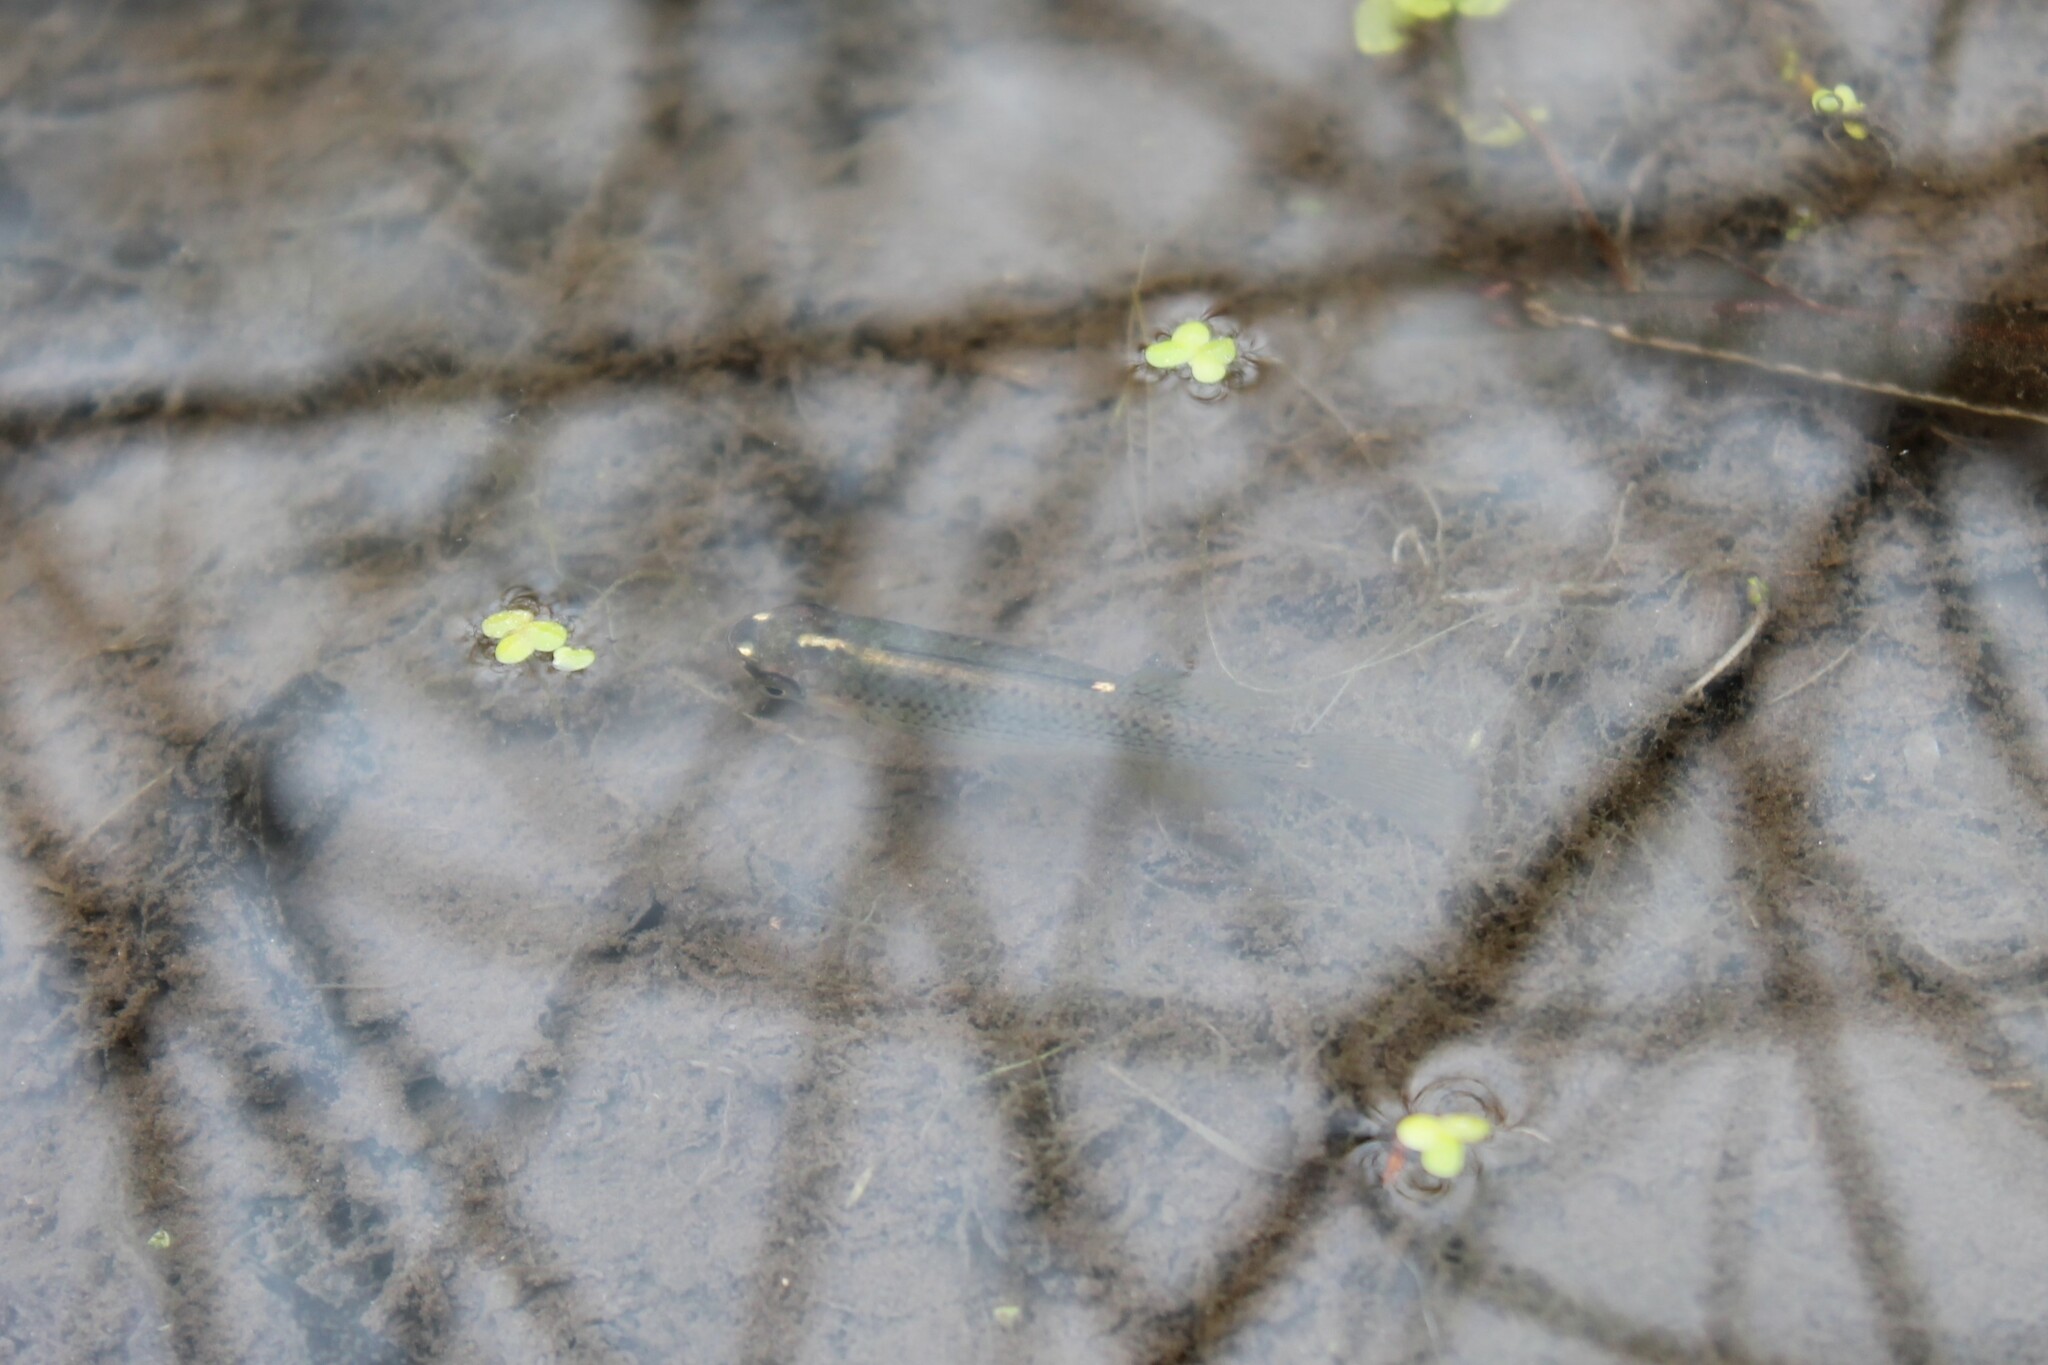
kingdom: Animalia
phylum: Chordata
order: Cyprinodontiformes
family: Fundulidae
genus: Fundulus
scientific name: Fundulus dispar
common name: Starhead topminnow
